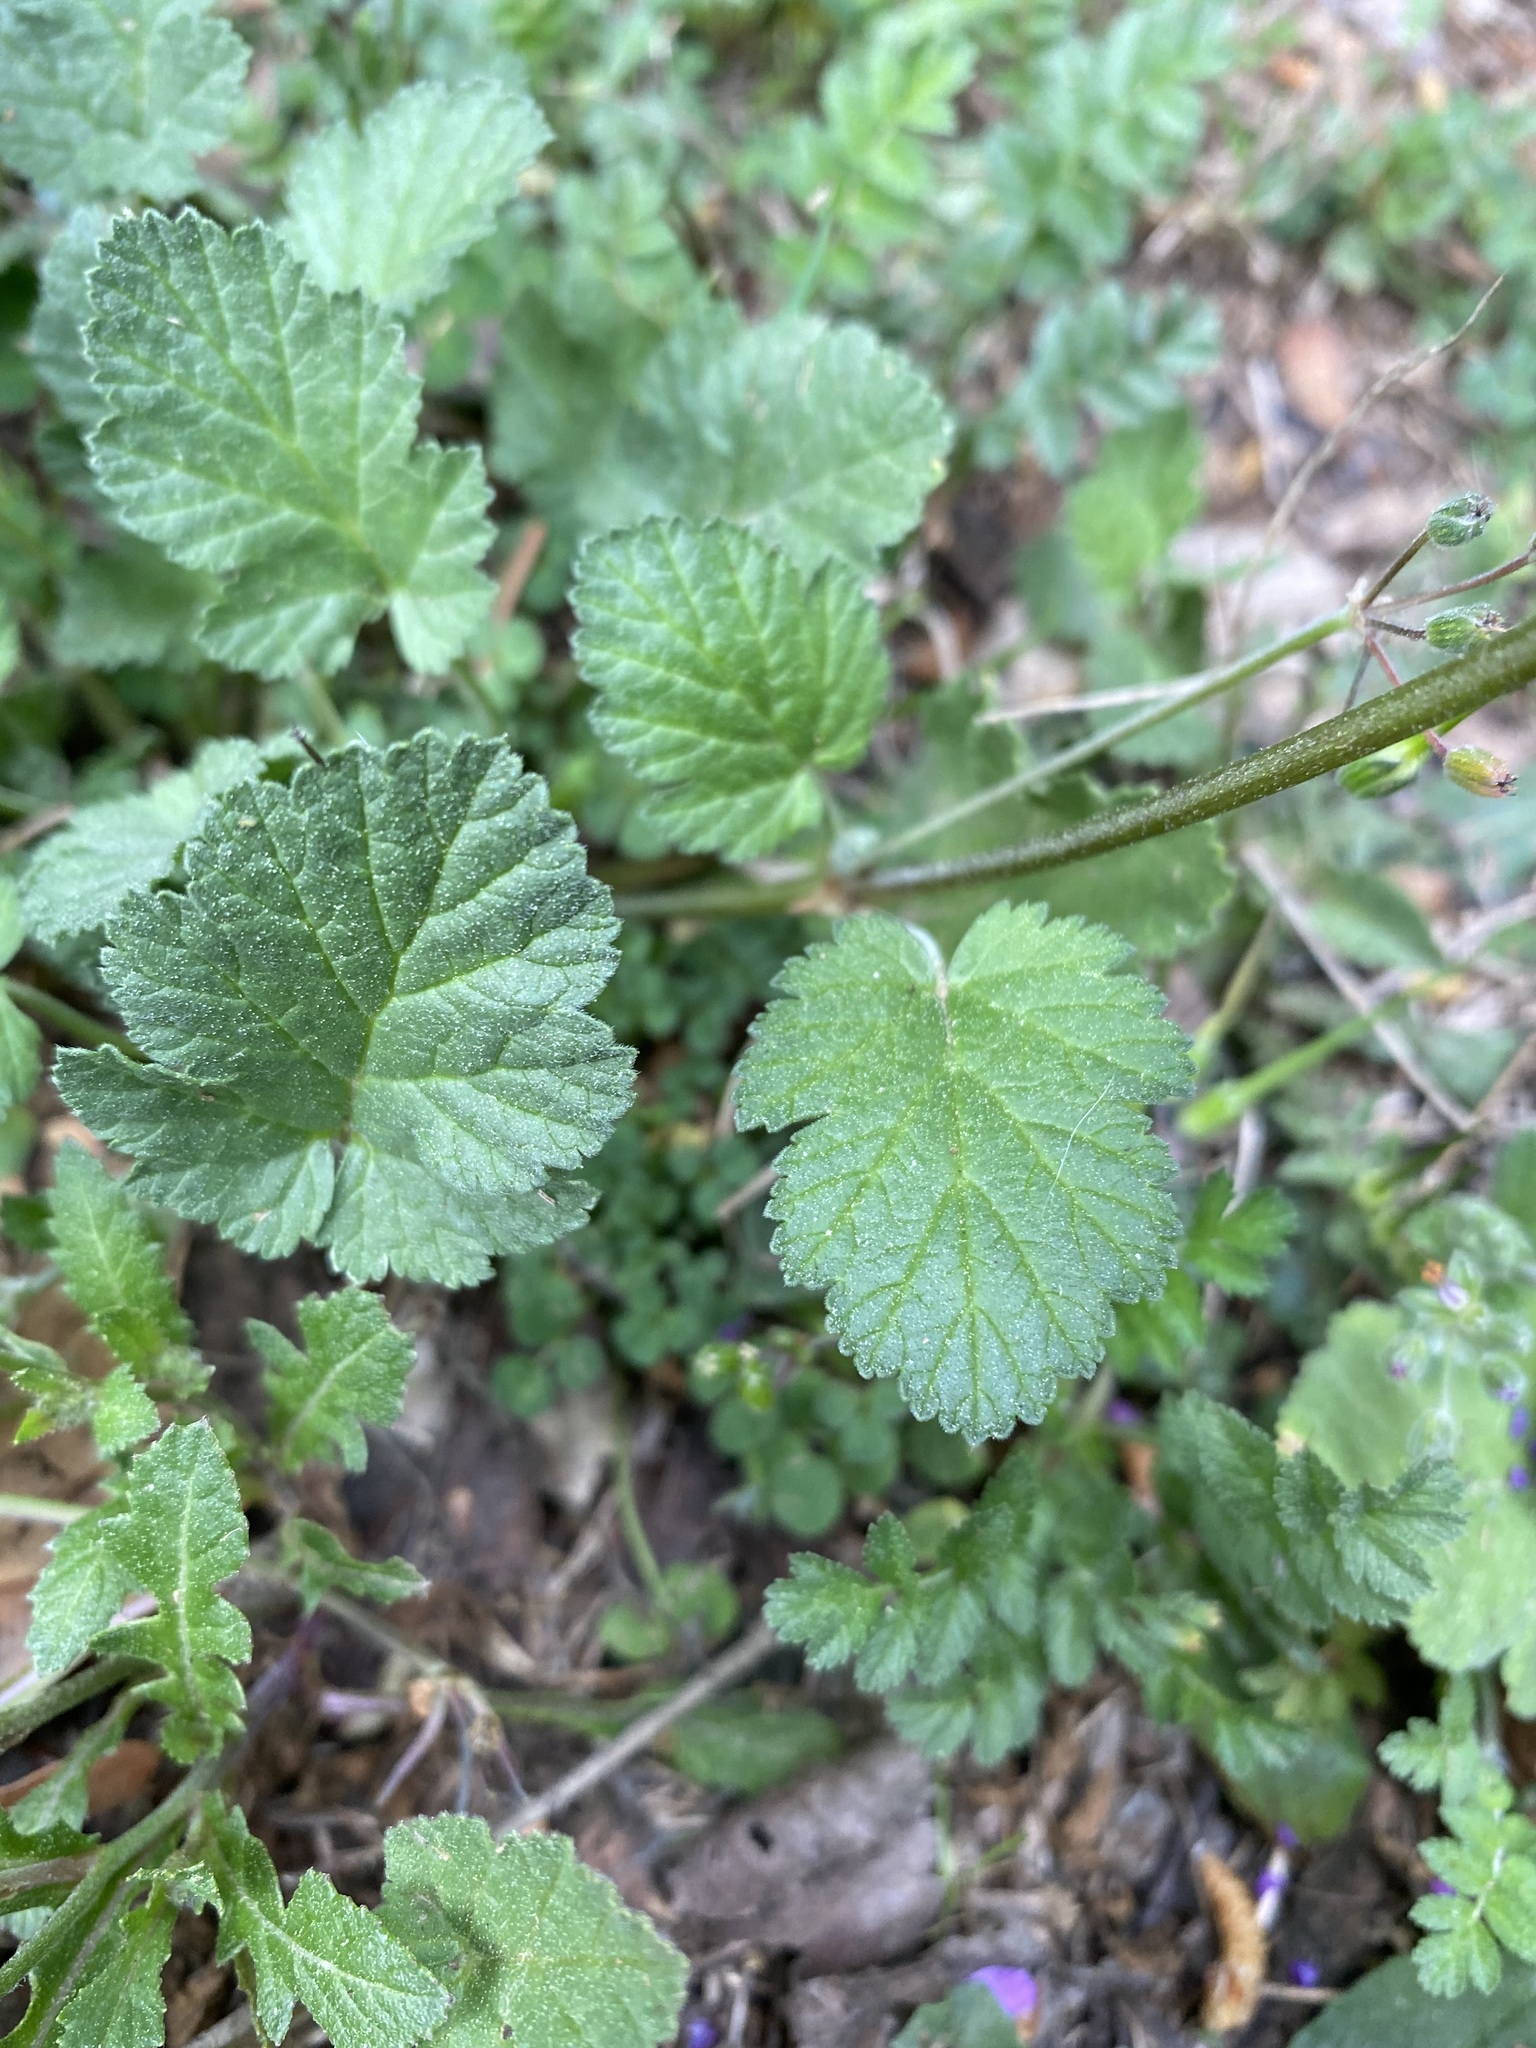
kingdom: Plantae
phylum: Tracheophyta
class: Magnoliopsida
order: Geraniales
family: Geraniaceae
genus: Erodium
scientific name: Erodium malacoides
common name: Soft stork's-bill
